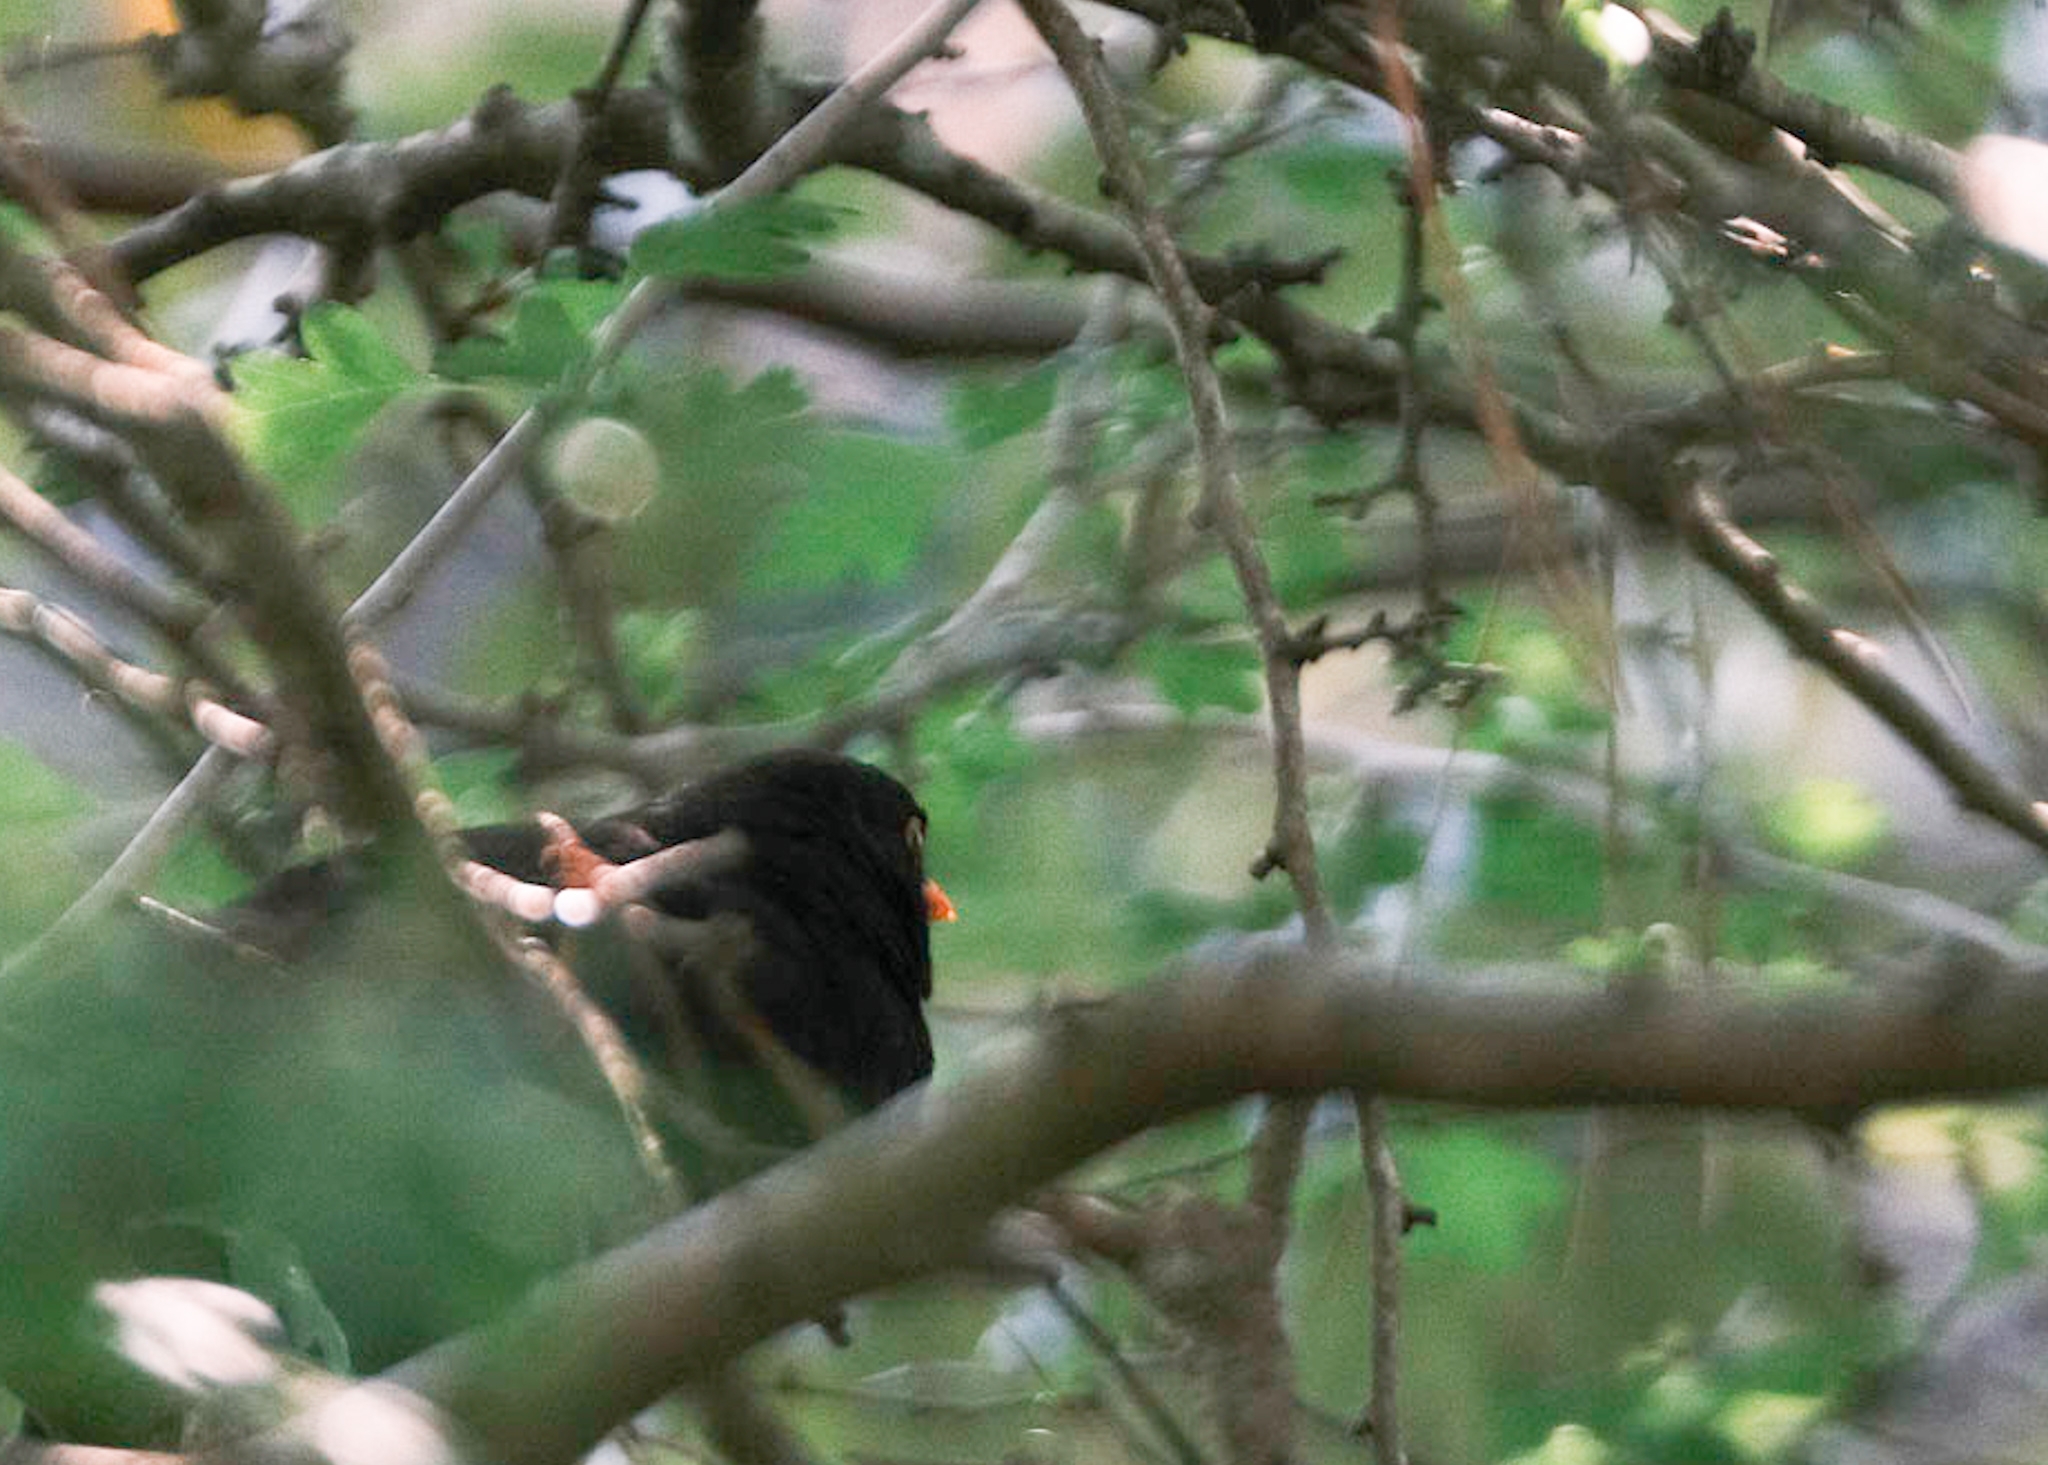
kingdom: Animalia
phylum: Chordata
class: Aves
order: Passeriformes
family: Turdidae
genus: Turdus
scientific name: Turdus merula
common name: Common blackbird
